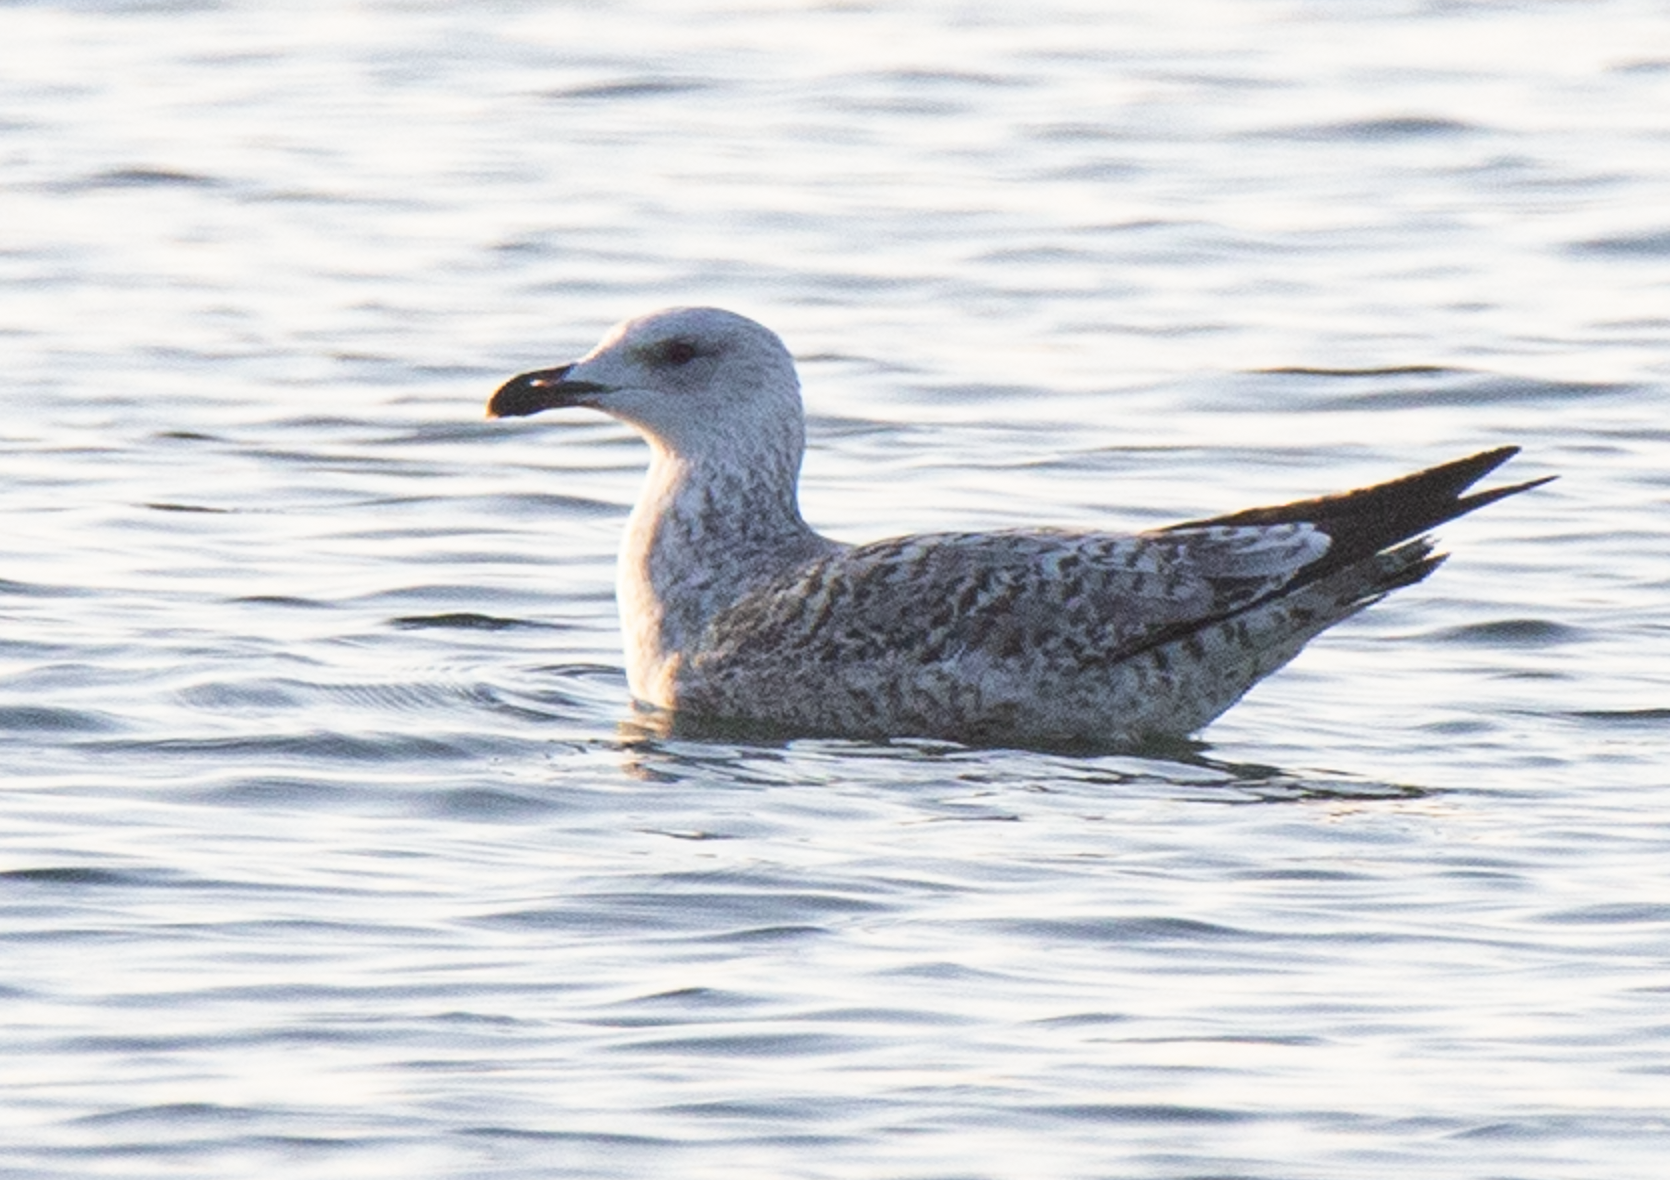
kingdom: Animalia
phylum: Chordata
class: Aves
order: Charadriiformes
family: Laridae
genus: Larus
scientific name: Larus michahellis
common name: Yellow-legged gull
